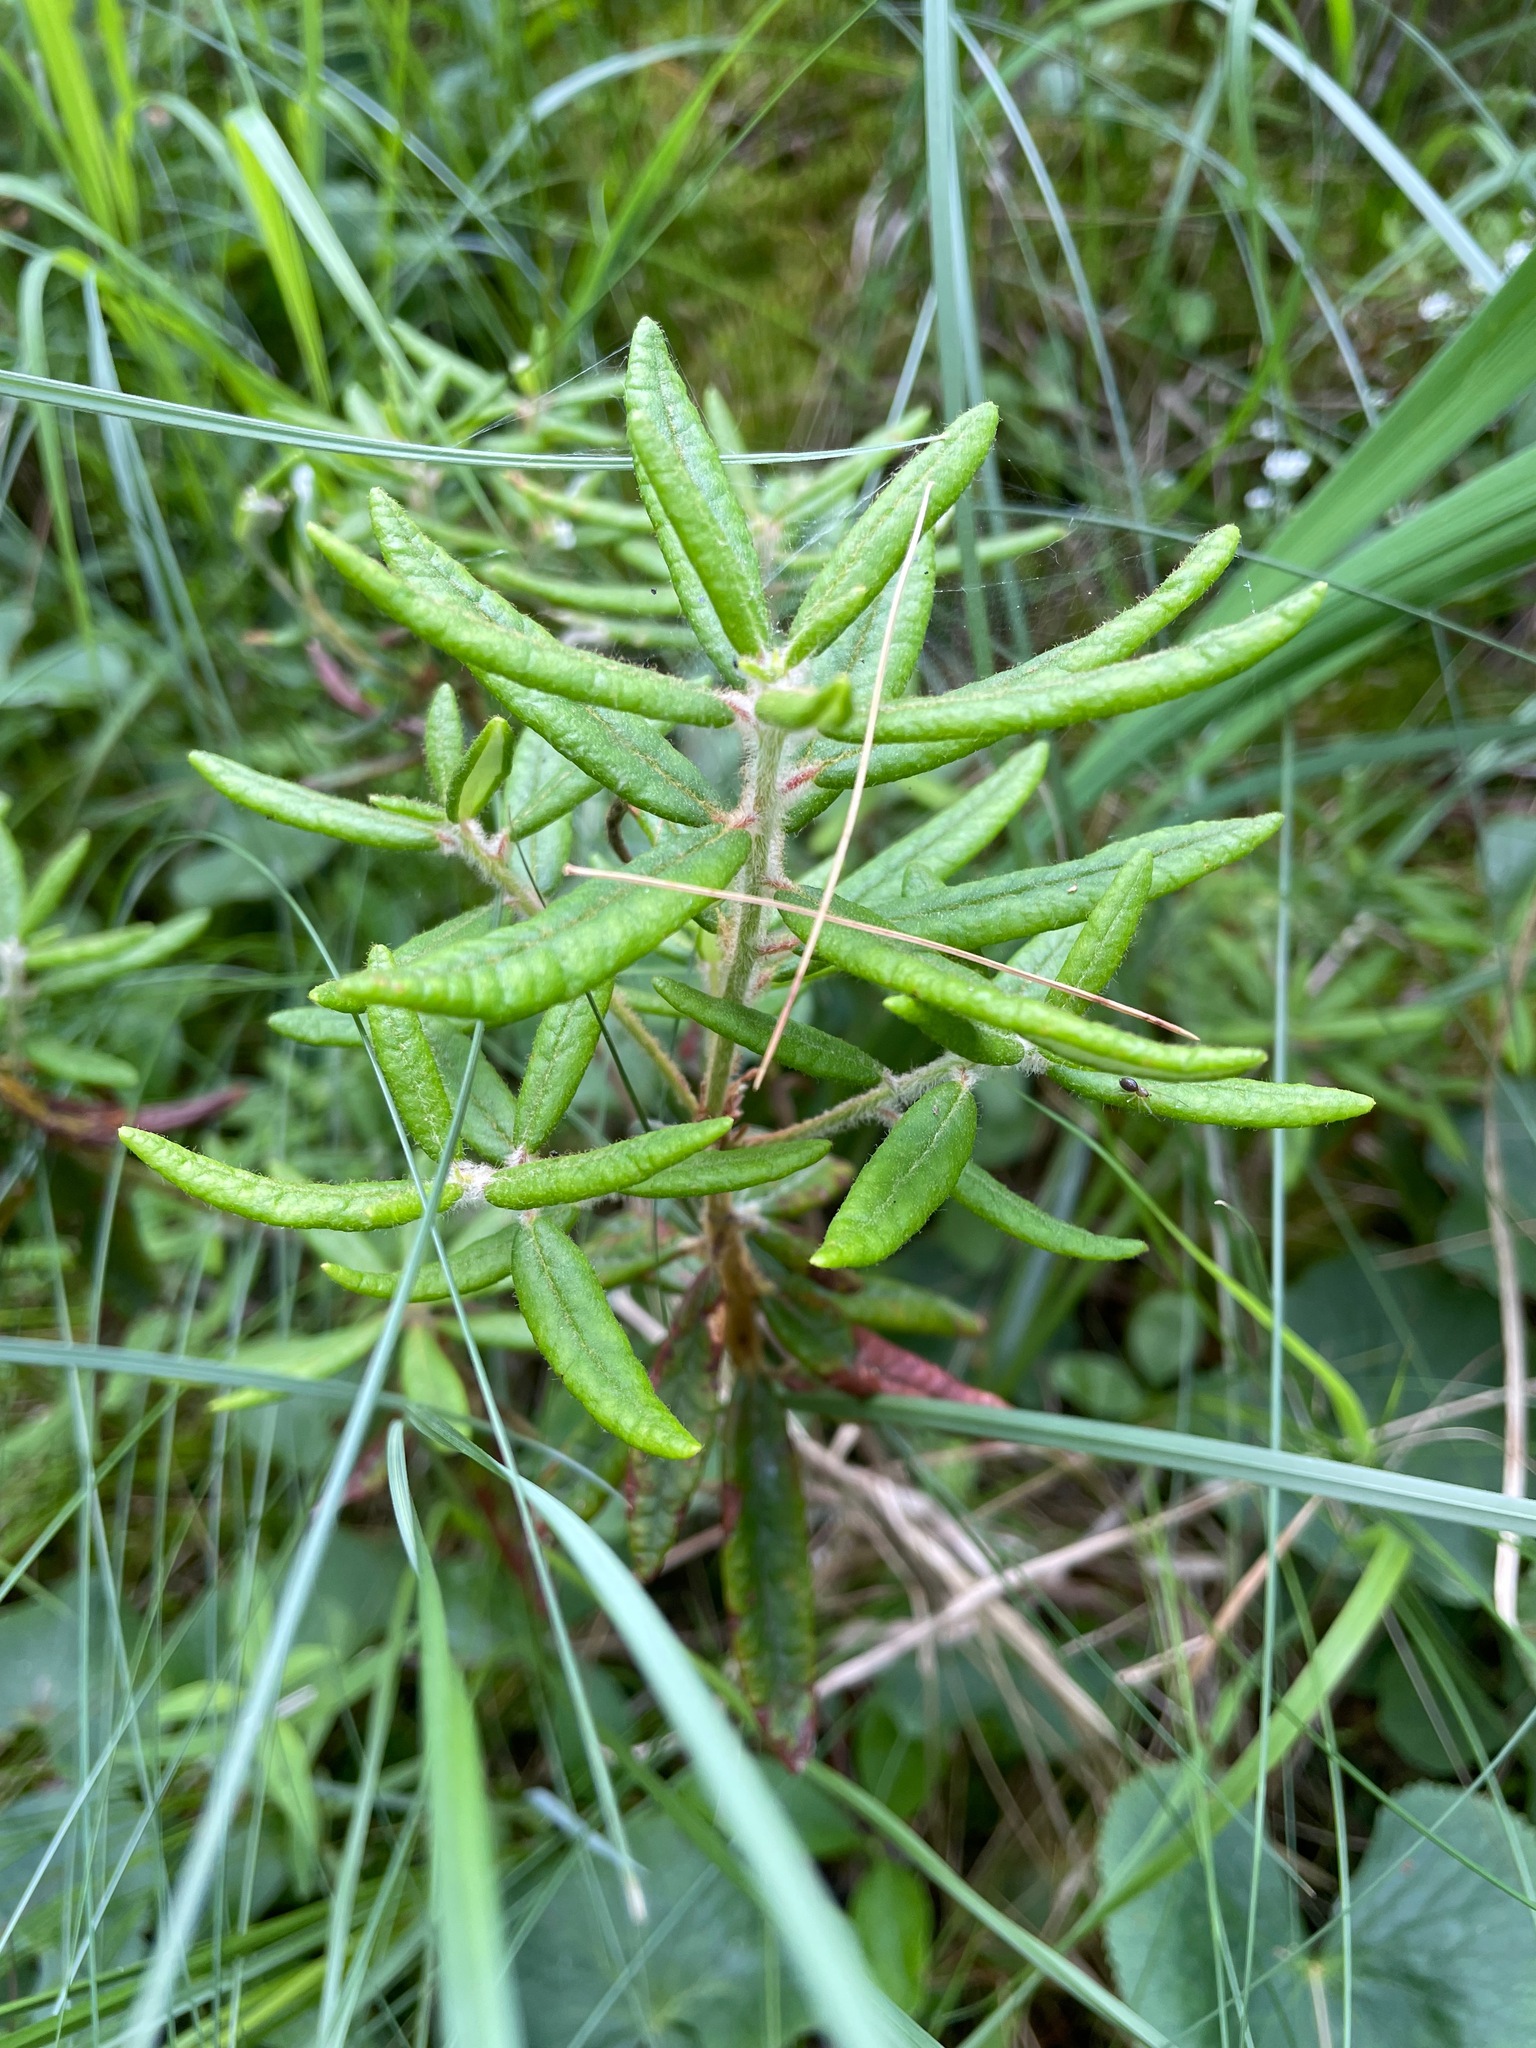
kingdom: Plantae
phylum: Tracheophyta
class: Magnoliopsida
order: Ericales
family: Ericaceae
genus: Rhododendron
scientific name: Rhododendron groenlandicum
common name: Bog labrador tea
